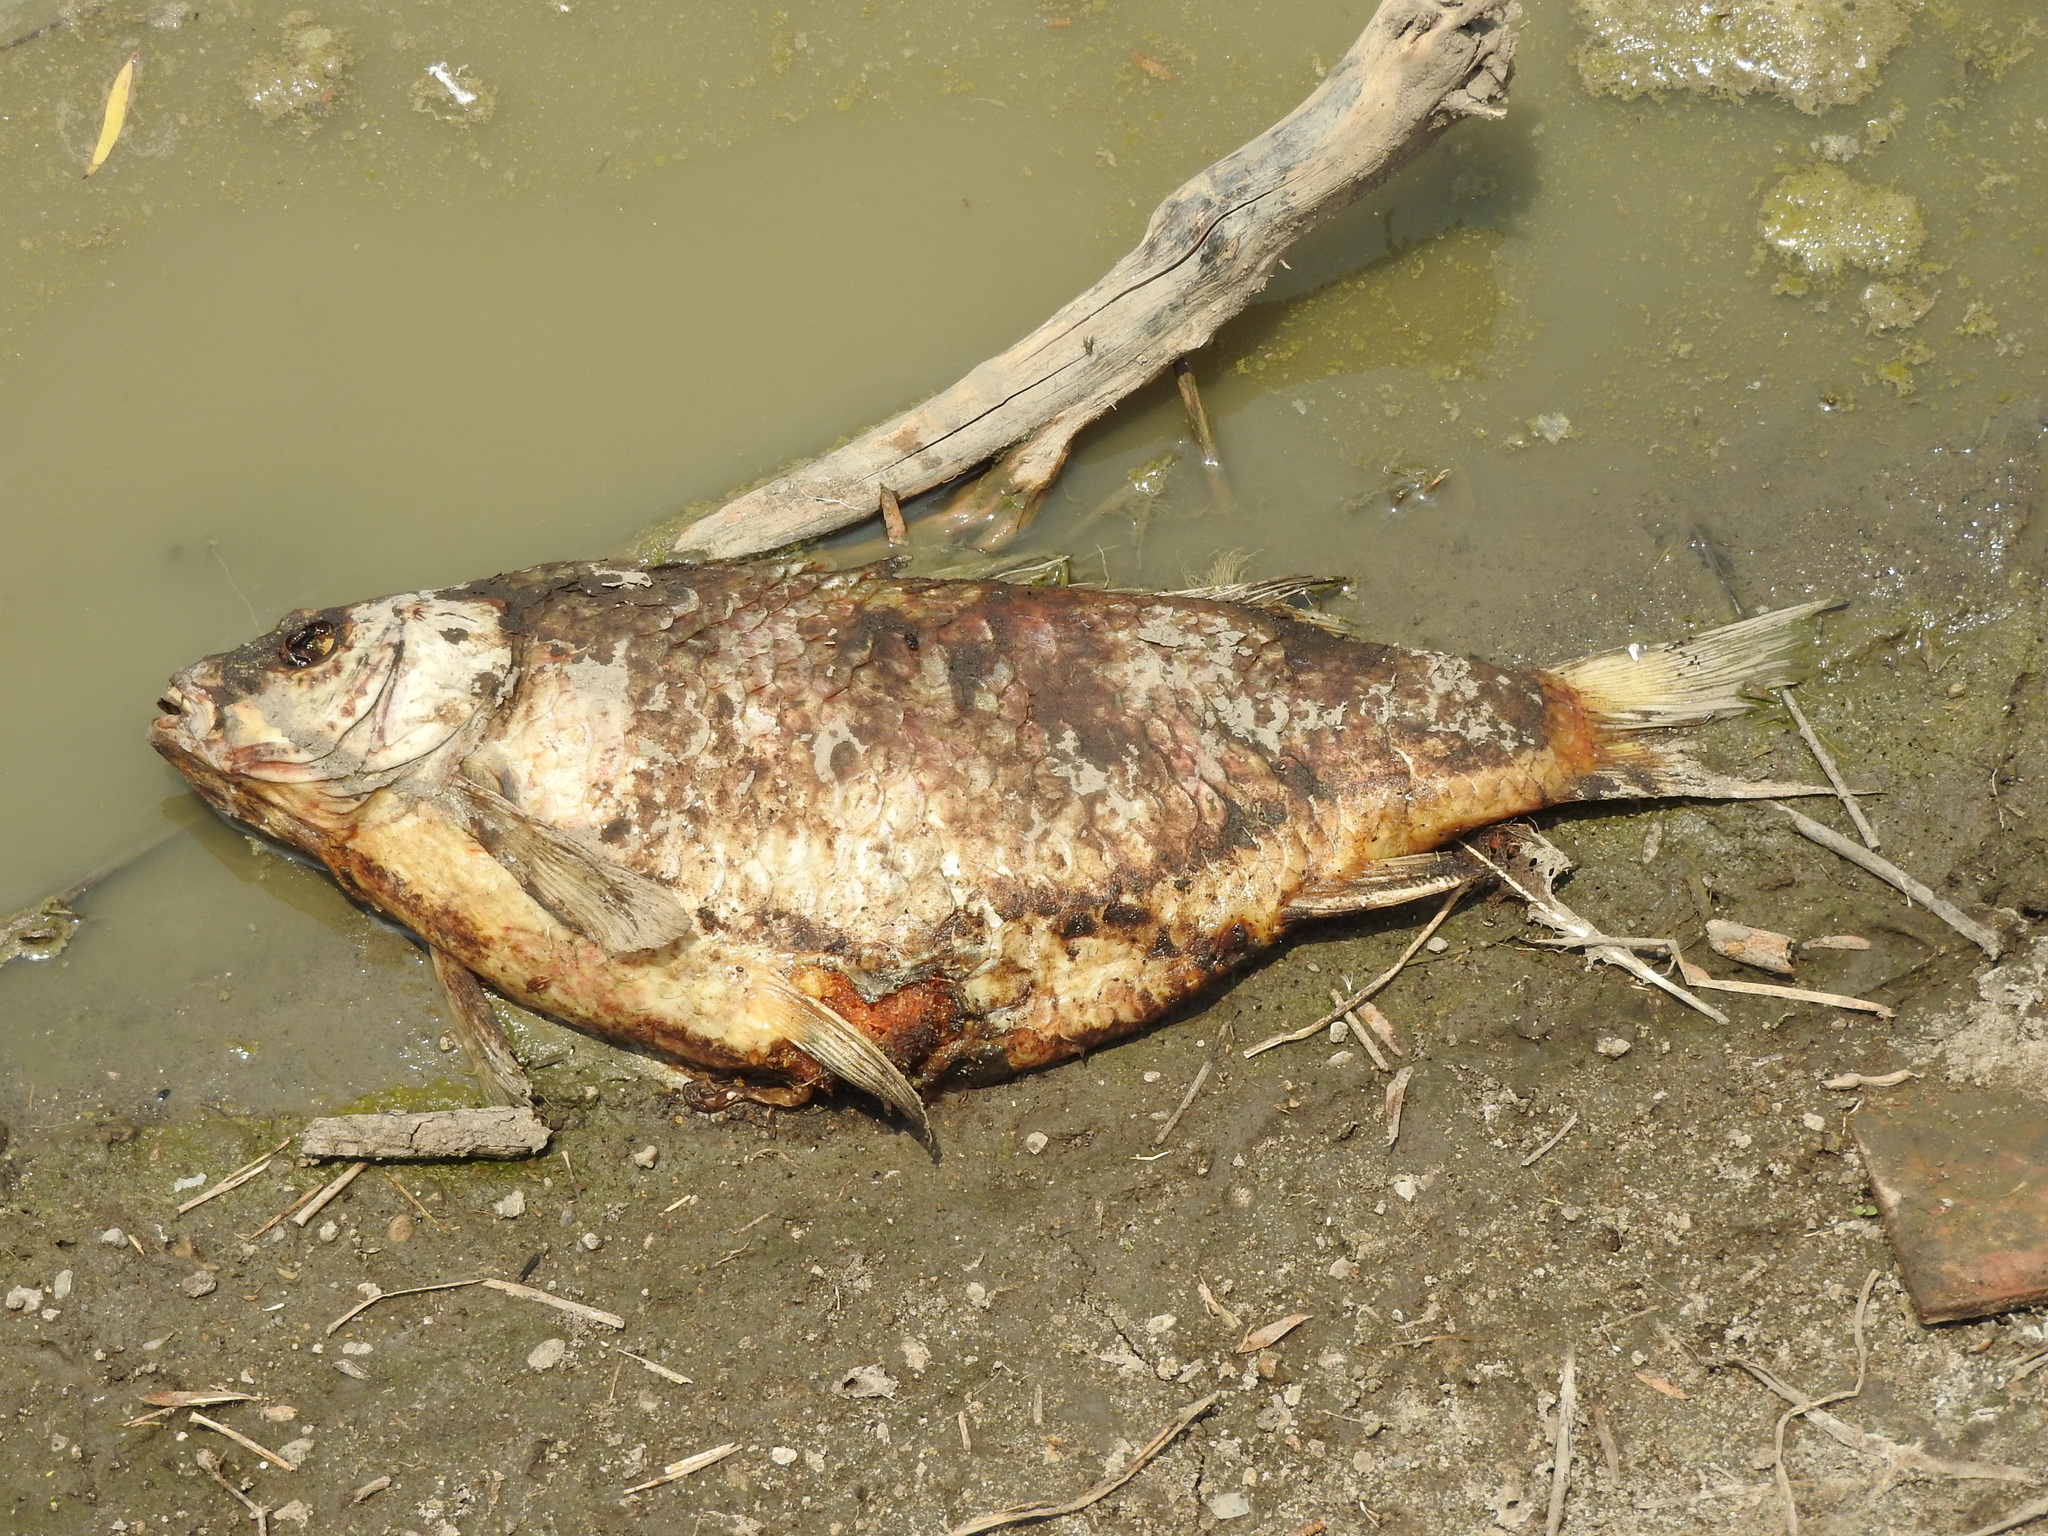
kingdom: Animalia
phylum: Chordata
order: Cypriniformes
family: Cyprinidae
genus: Cyprinus
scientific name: Cyprinus carpio
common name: Common carp
